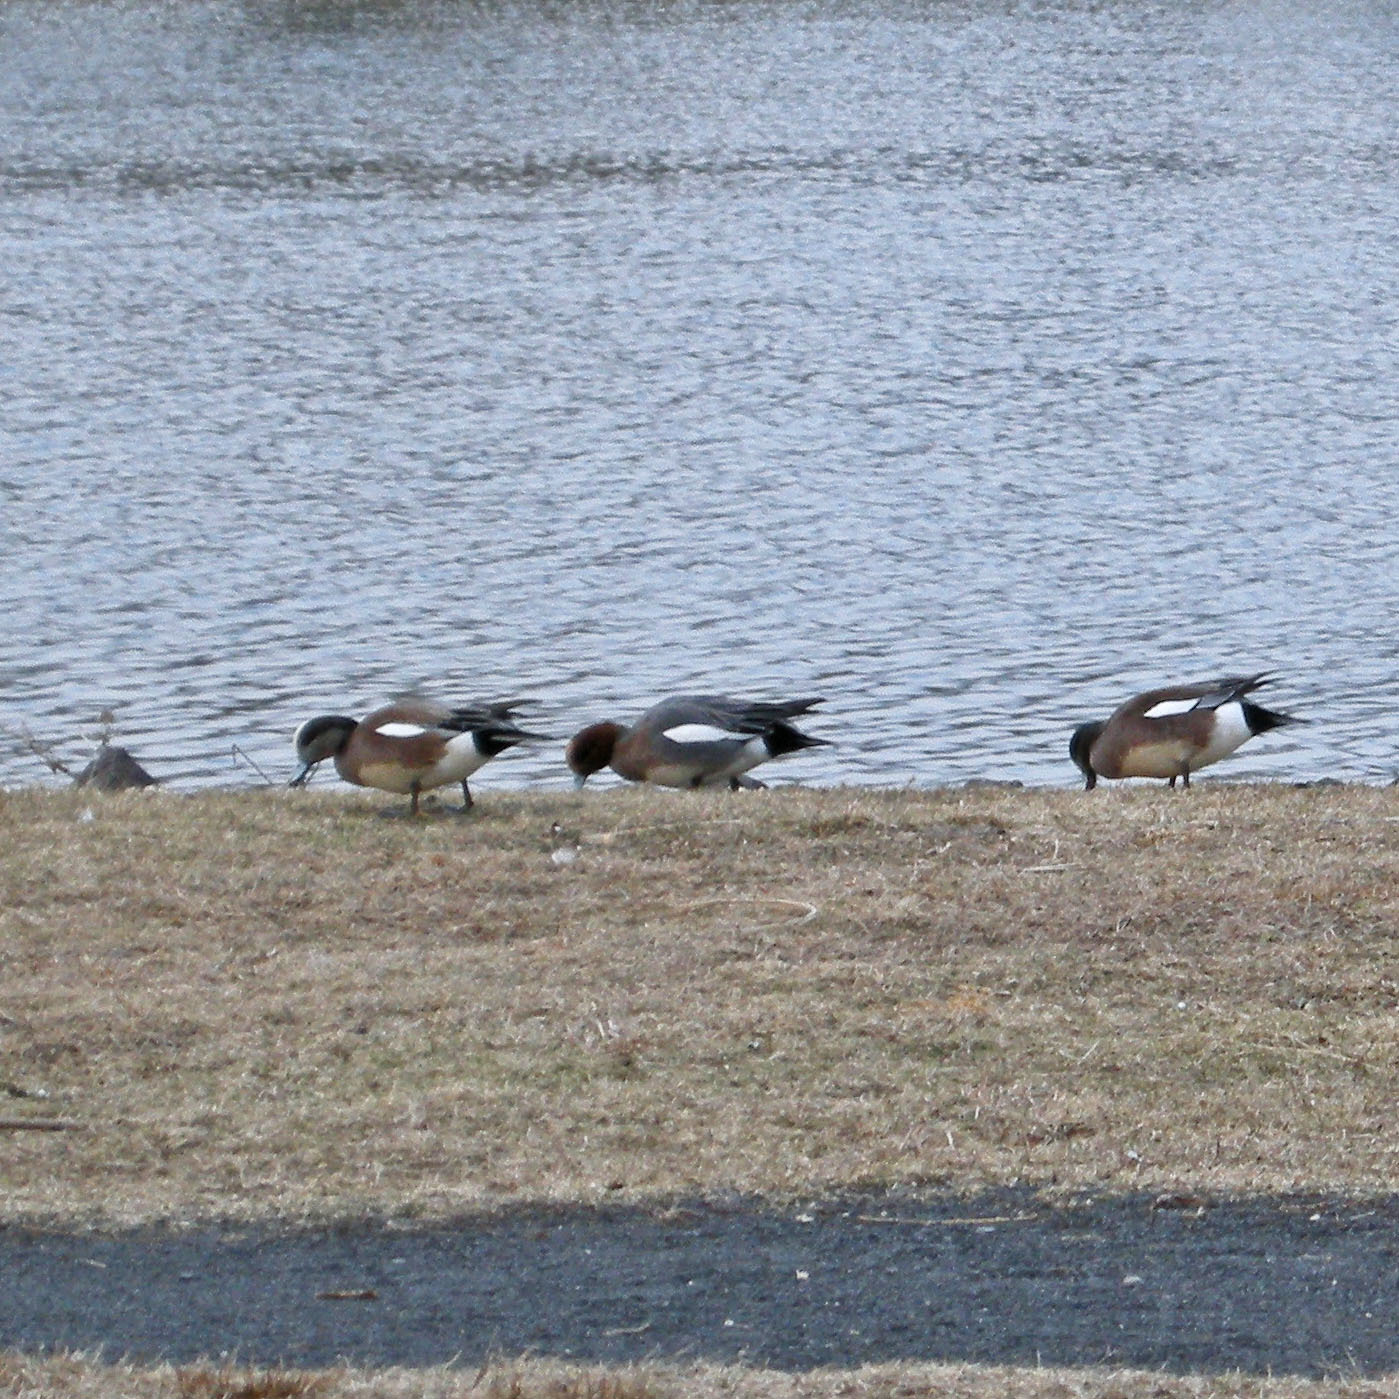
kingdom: Animalia
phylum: Chordata
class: Aves
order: Anseriformes
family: Anatidae
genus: Mareca
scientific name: Mareca penelope
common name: Eurasian wigeon
